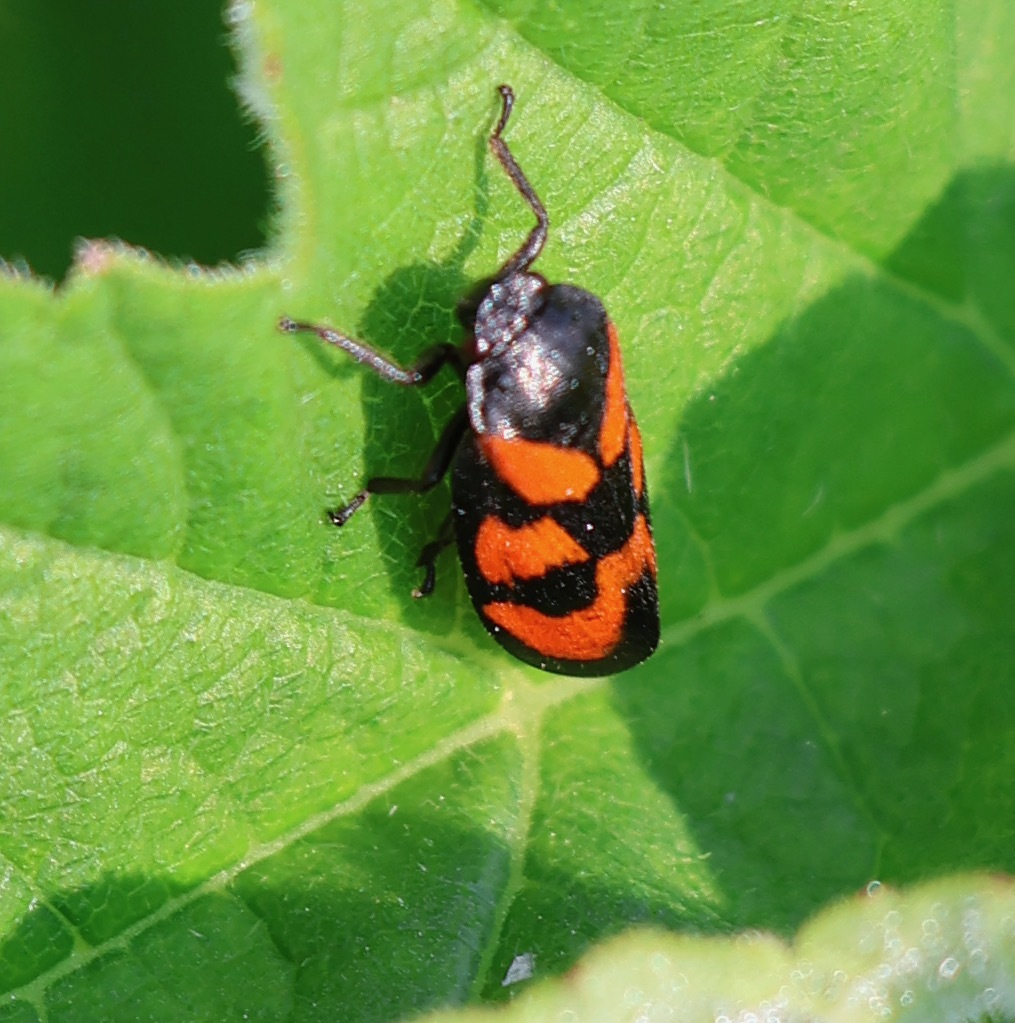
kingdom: Animalia
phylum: Arthropoda
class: Insecta
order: Hemiptera
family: Cercopidae
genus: Cercopis
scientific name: Cercopis vulnerata
